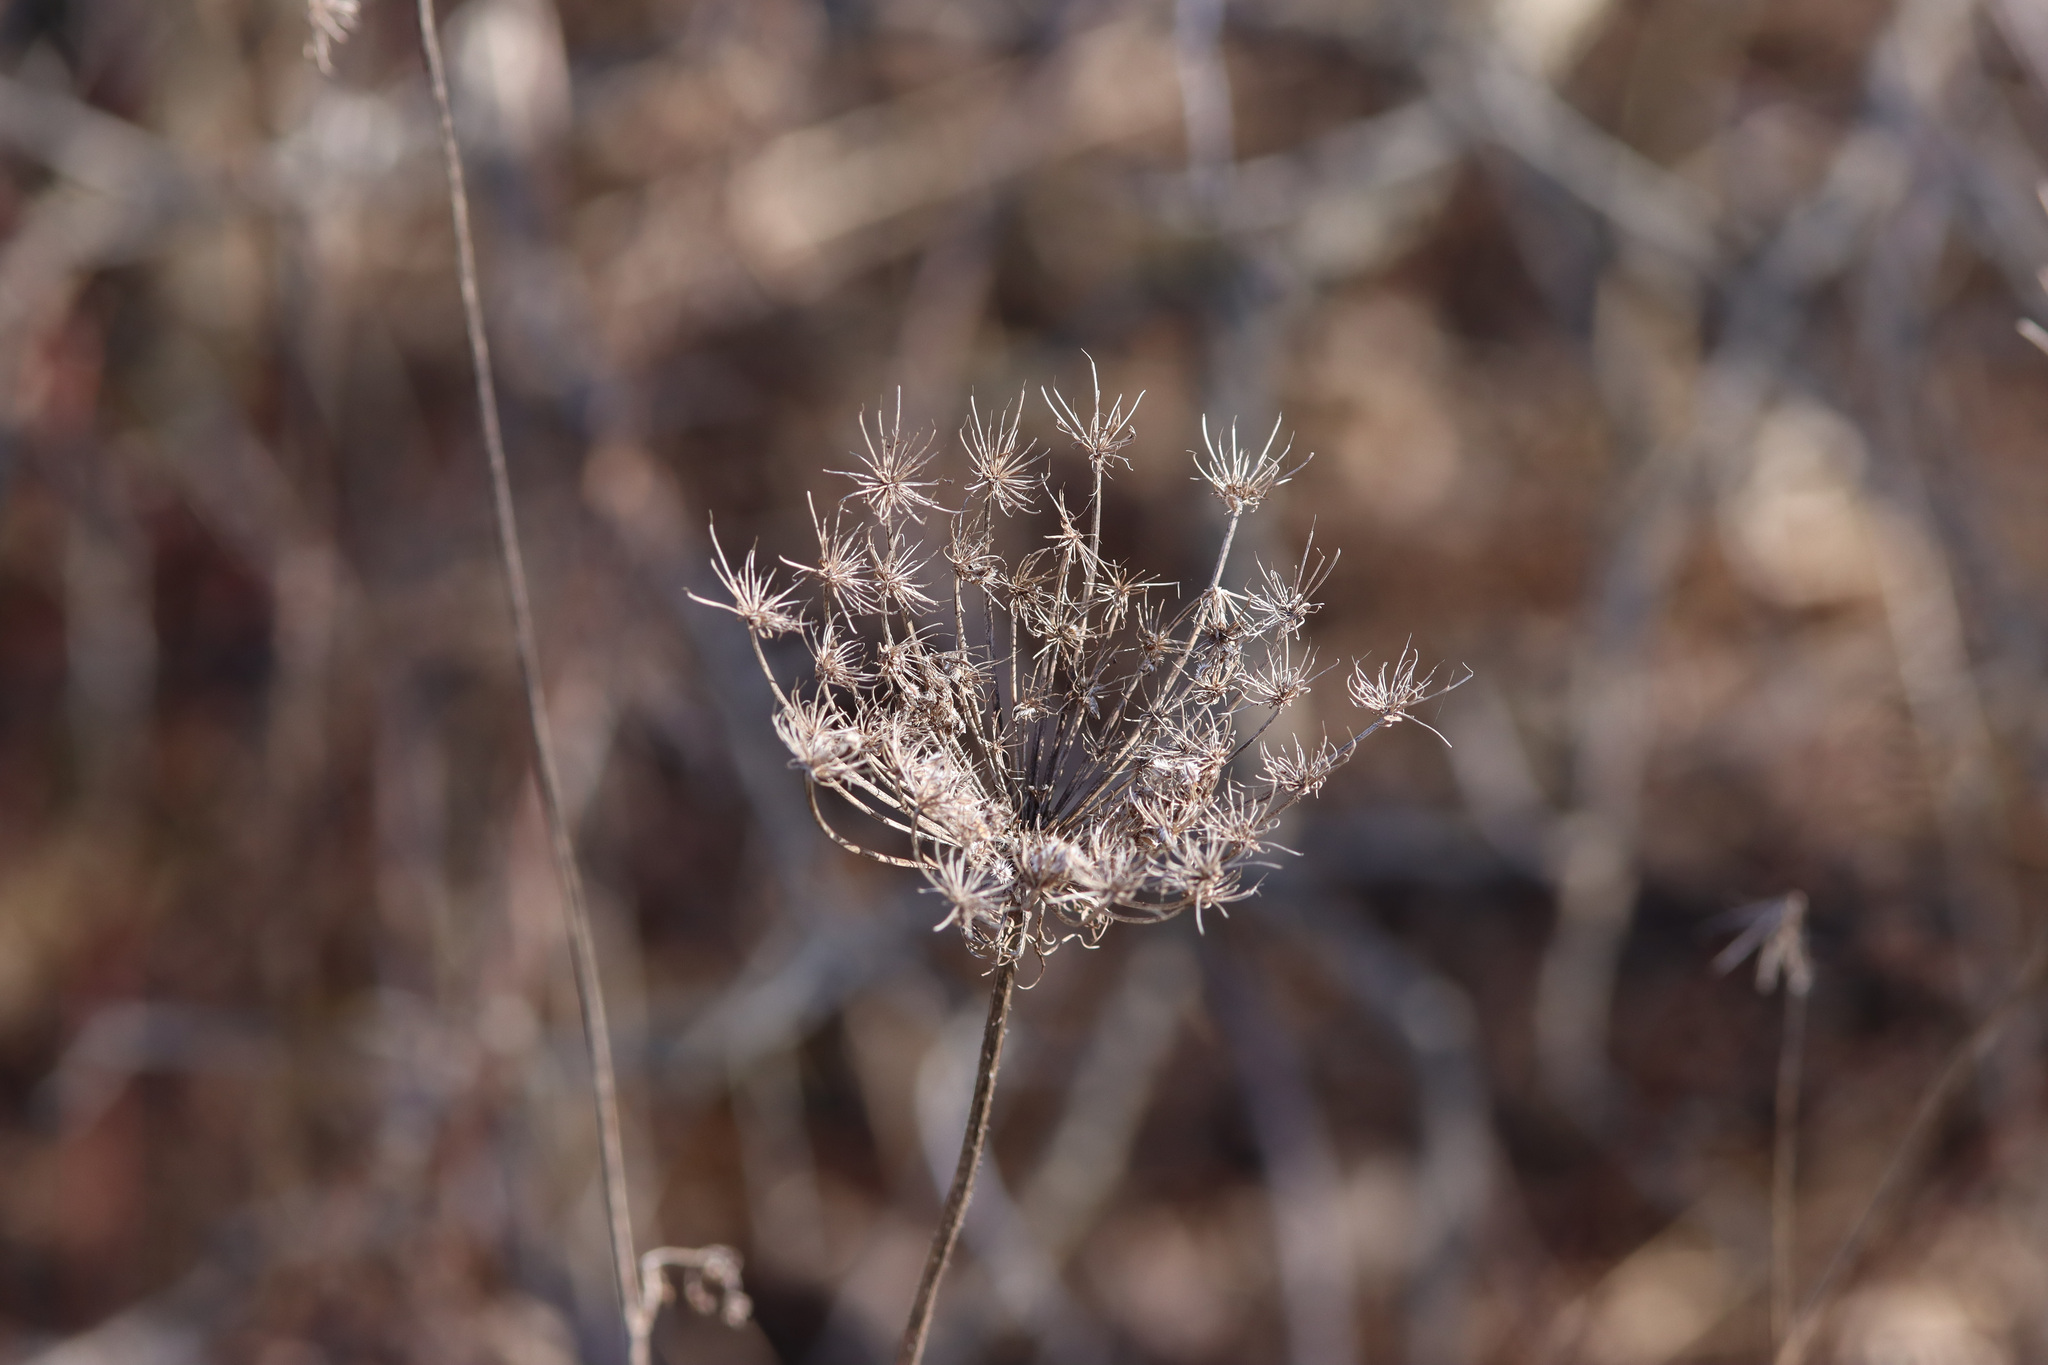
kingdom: Plantae
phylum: Tracheophyta
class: Magnoliopsida
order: Apiales
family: Apiaceae
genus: Daucus
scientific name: Daucus carota
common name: Wild carrot
